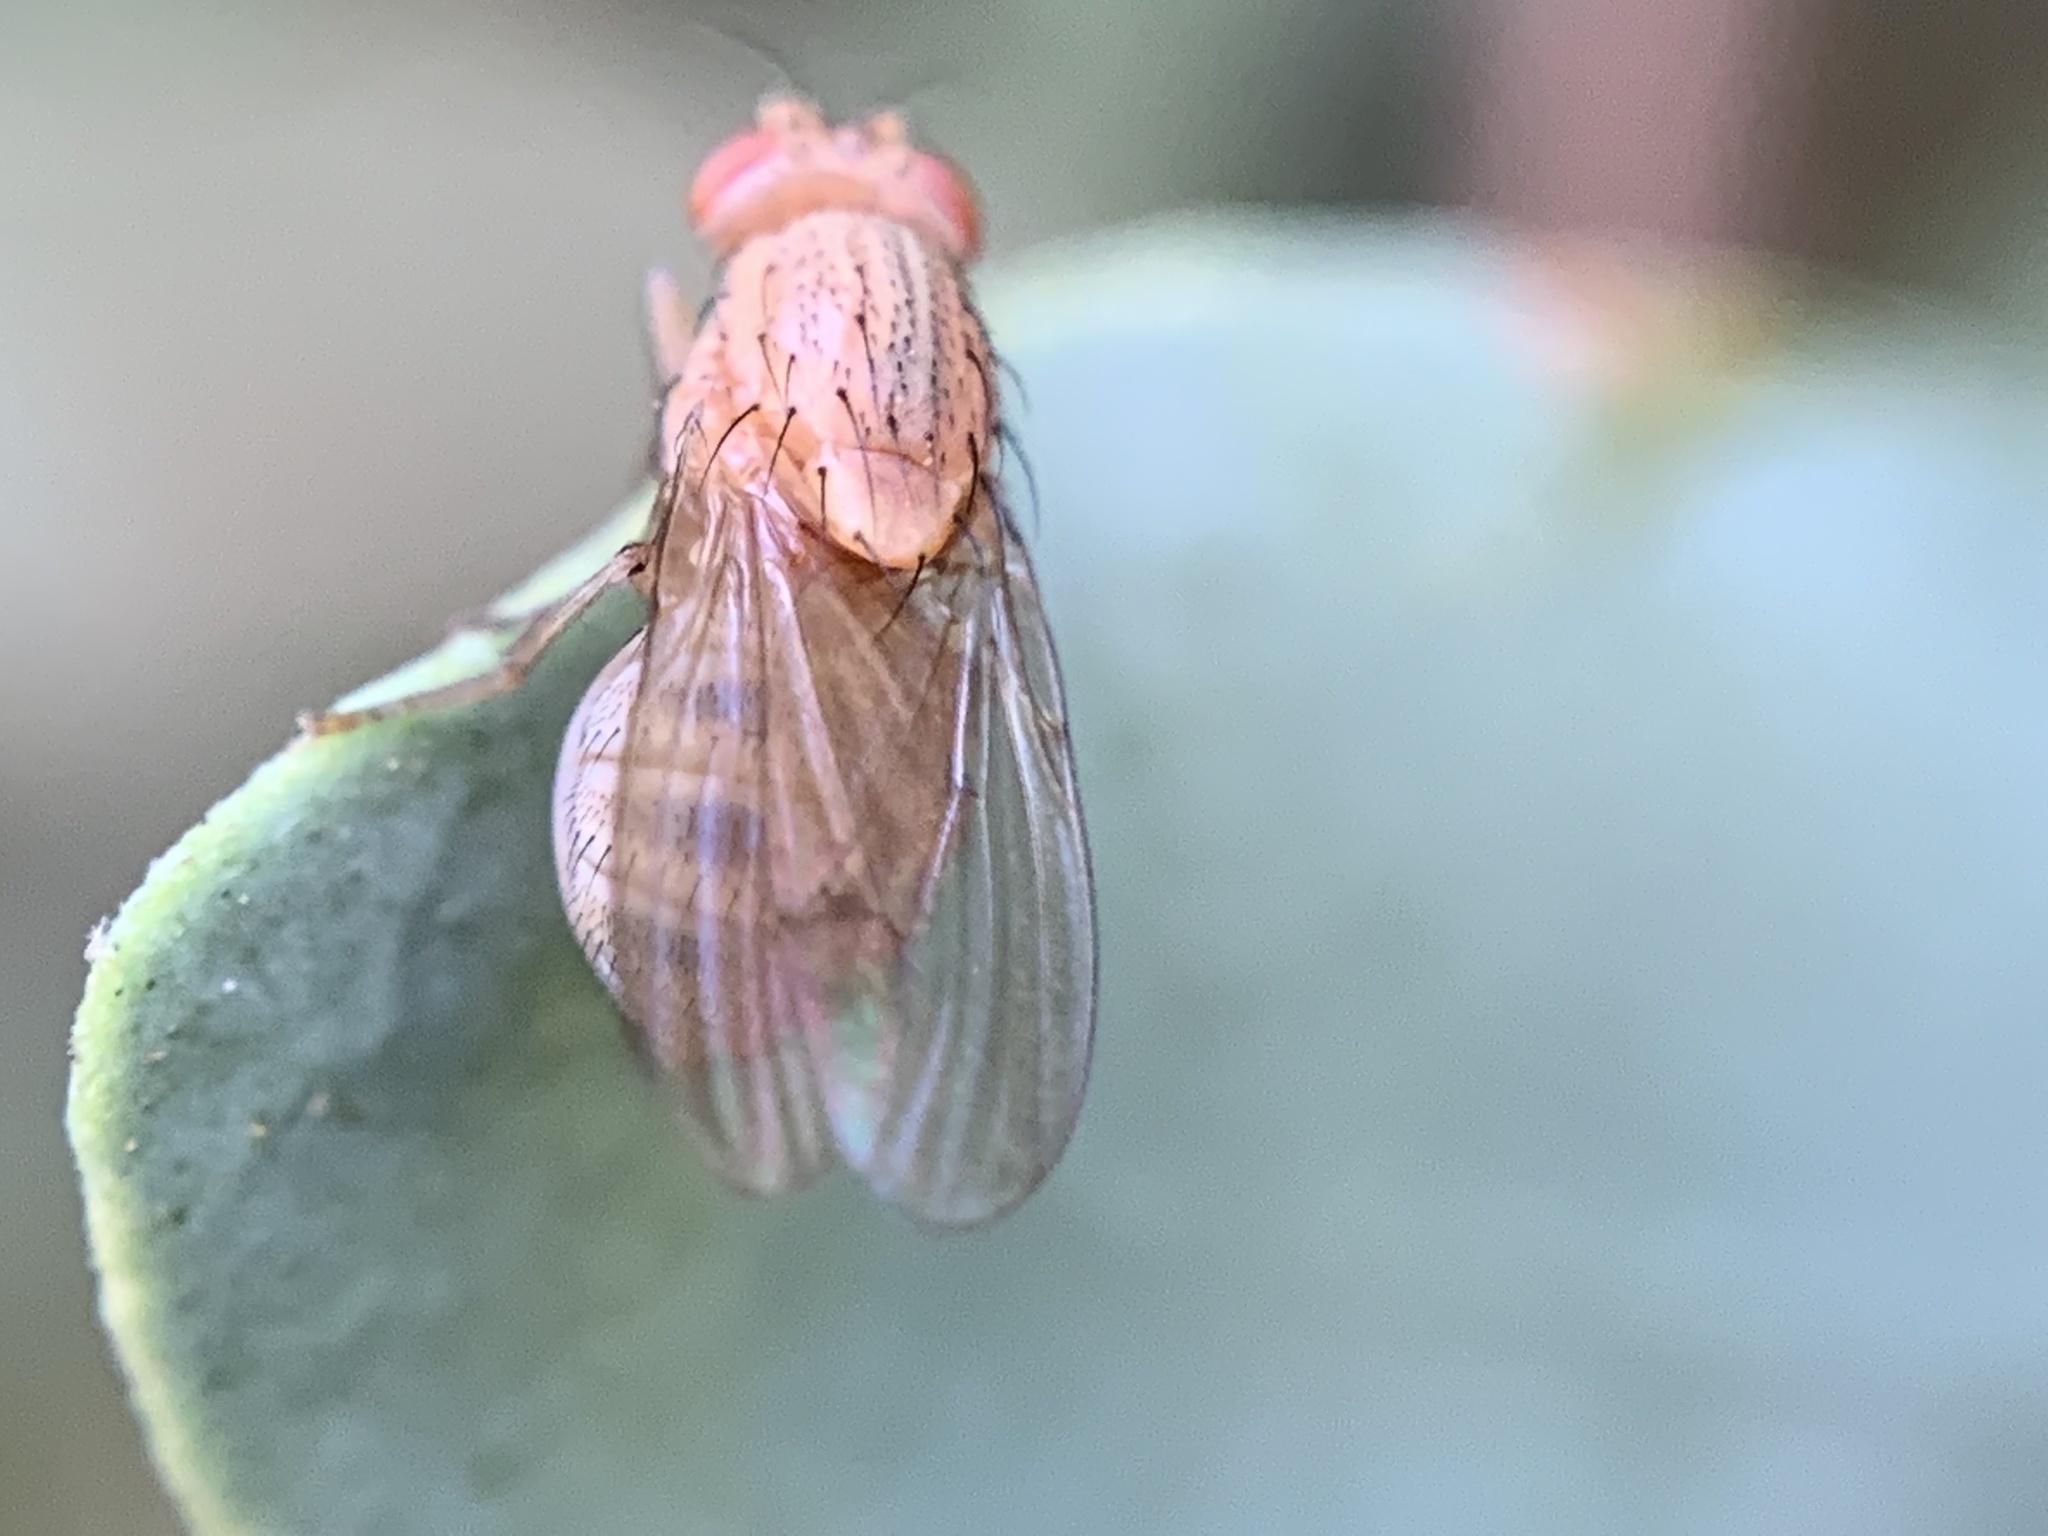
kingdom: Animalia
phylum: Arthropoda
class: Insecta
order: Diptera
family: Lauxaniidae
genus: Minettia
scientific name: Minettia flaveola
